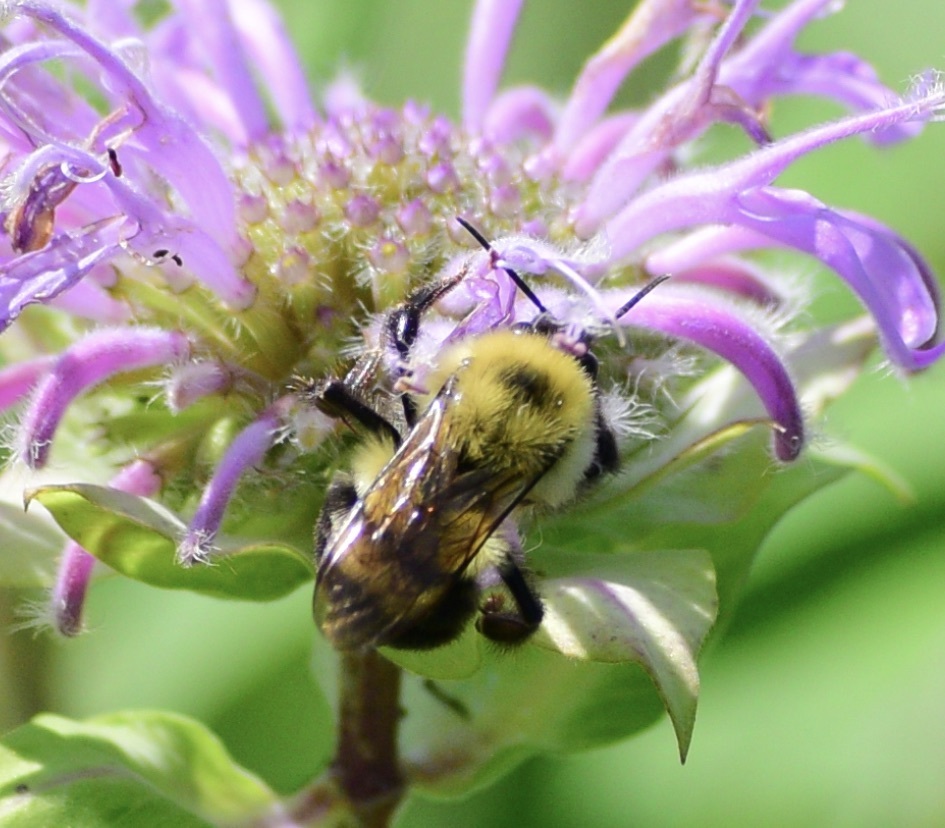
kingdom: Animalia
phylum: Arthropoda
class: Insecta
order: Hymenoptera
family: Apidae
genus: Bombus
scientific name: Bombus bimaculatus
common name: Two-spotted bumble bee
